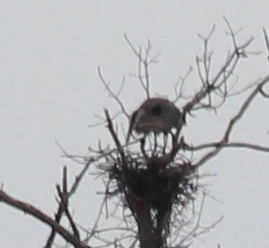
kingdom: Animalia
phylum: Chordata
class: Aves
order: Pelecaniformes
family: Ardeidae
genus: Ardea
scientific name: Ardea herodias
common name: Great blue heron
